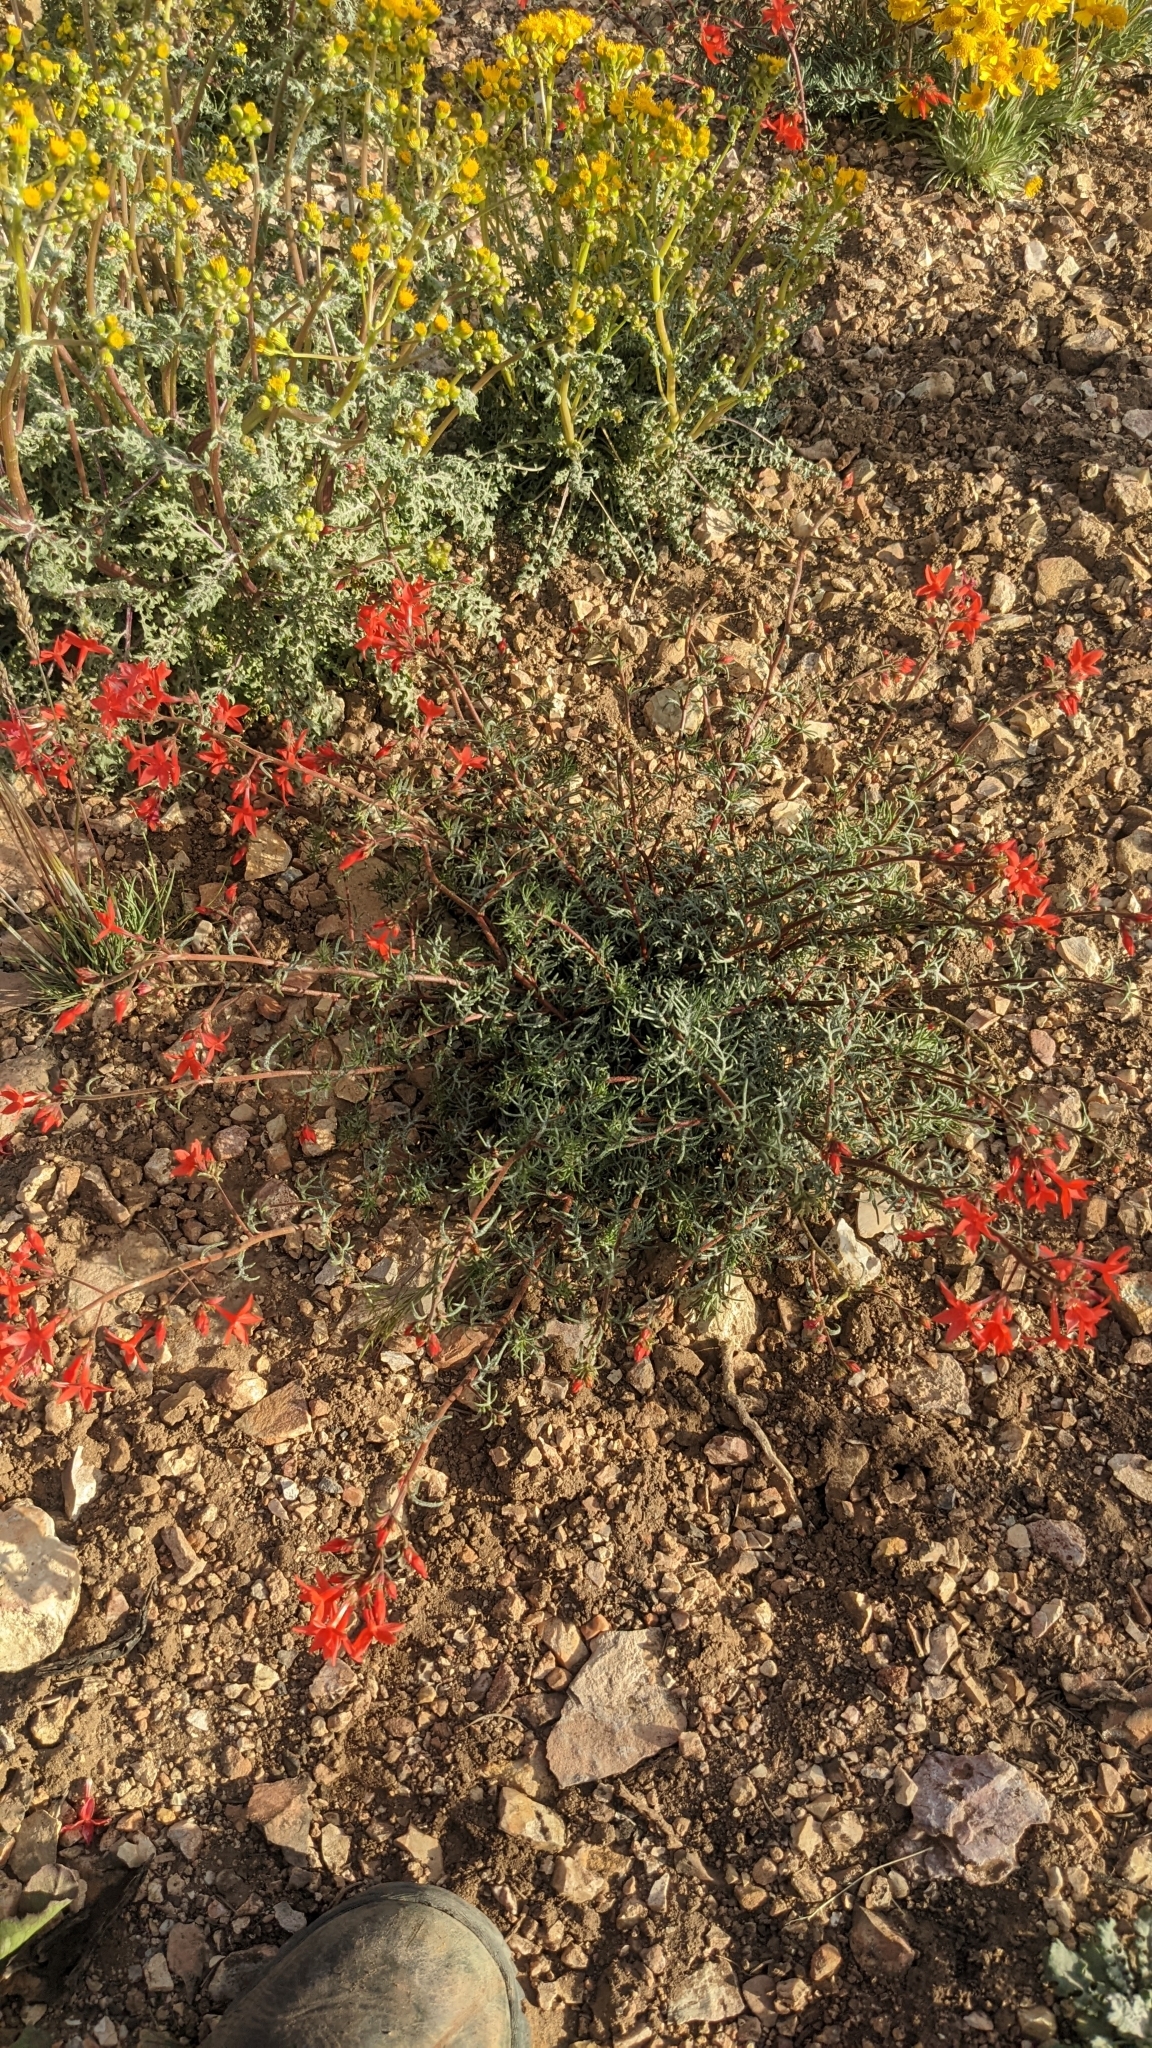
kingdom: Plantae
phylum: Tracheophyta
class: Magnoliopsida
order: Ericales
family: Polemoniaceae
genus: Ipomopsis
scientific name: Ipomopsis arizonica
